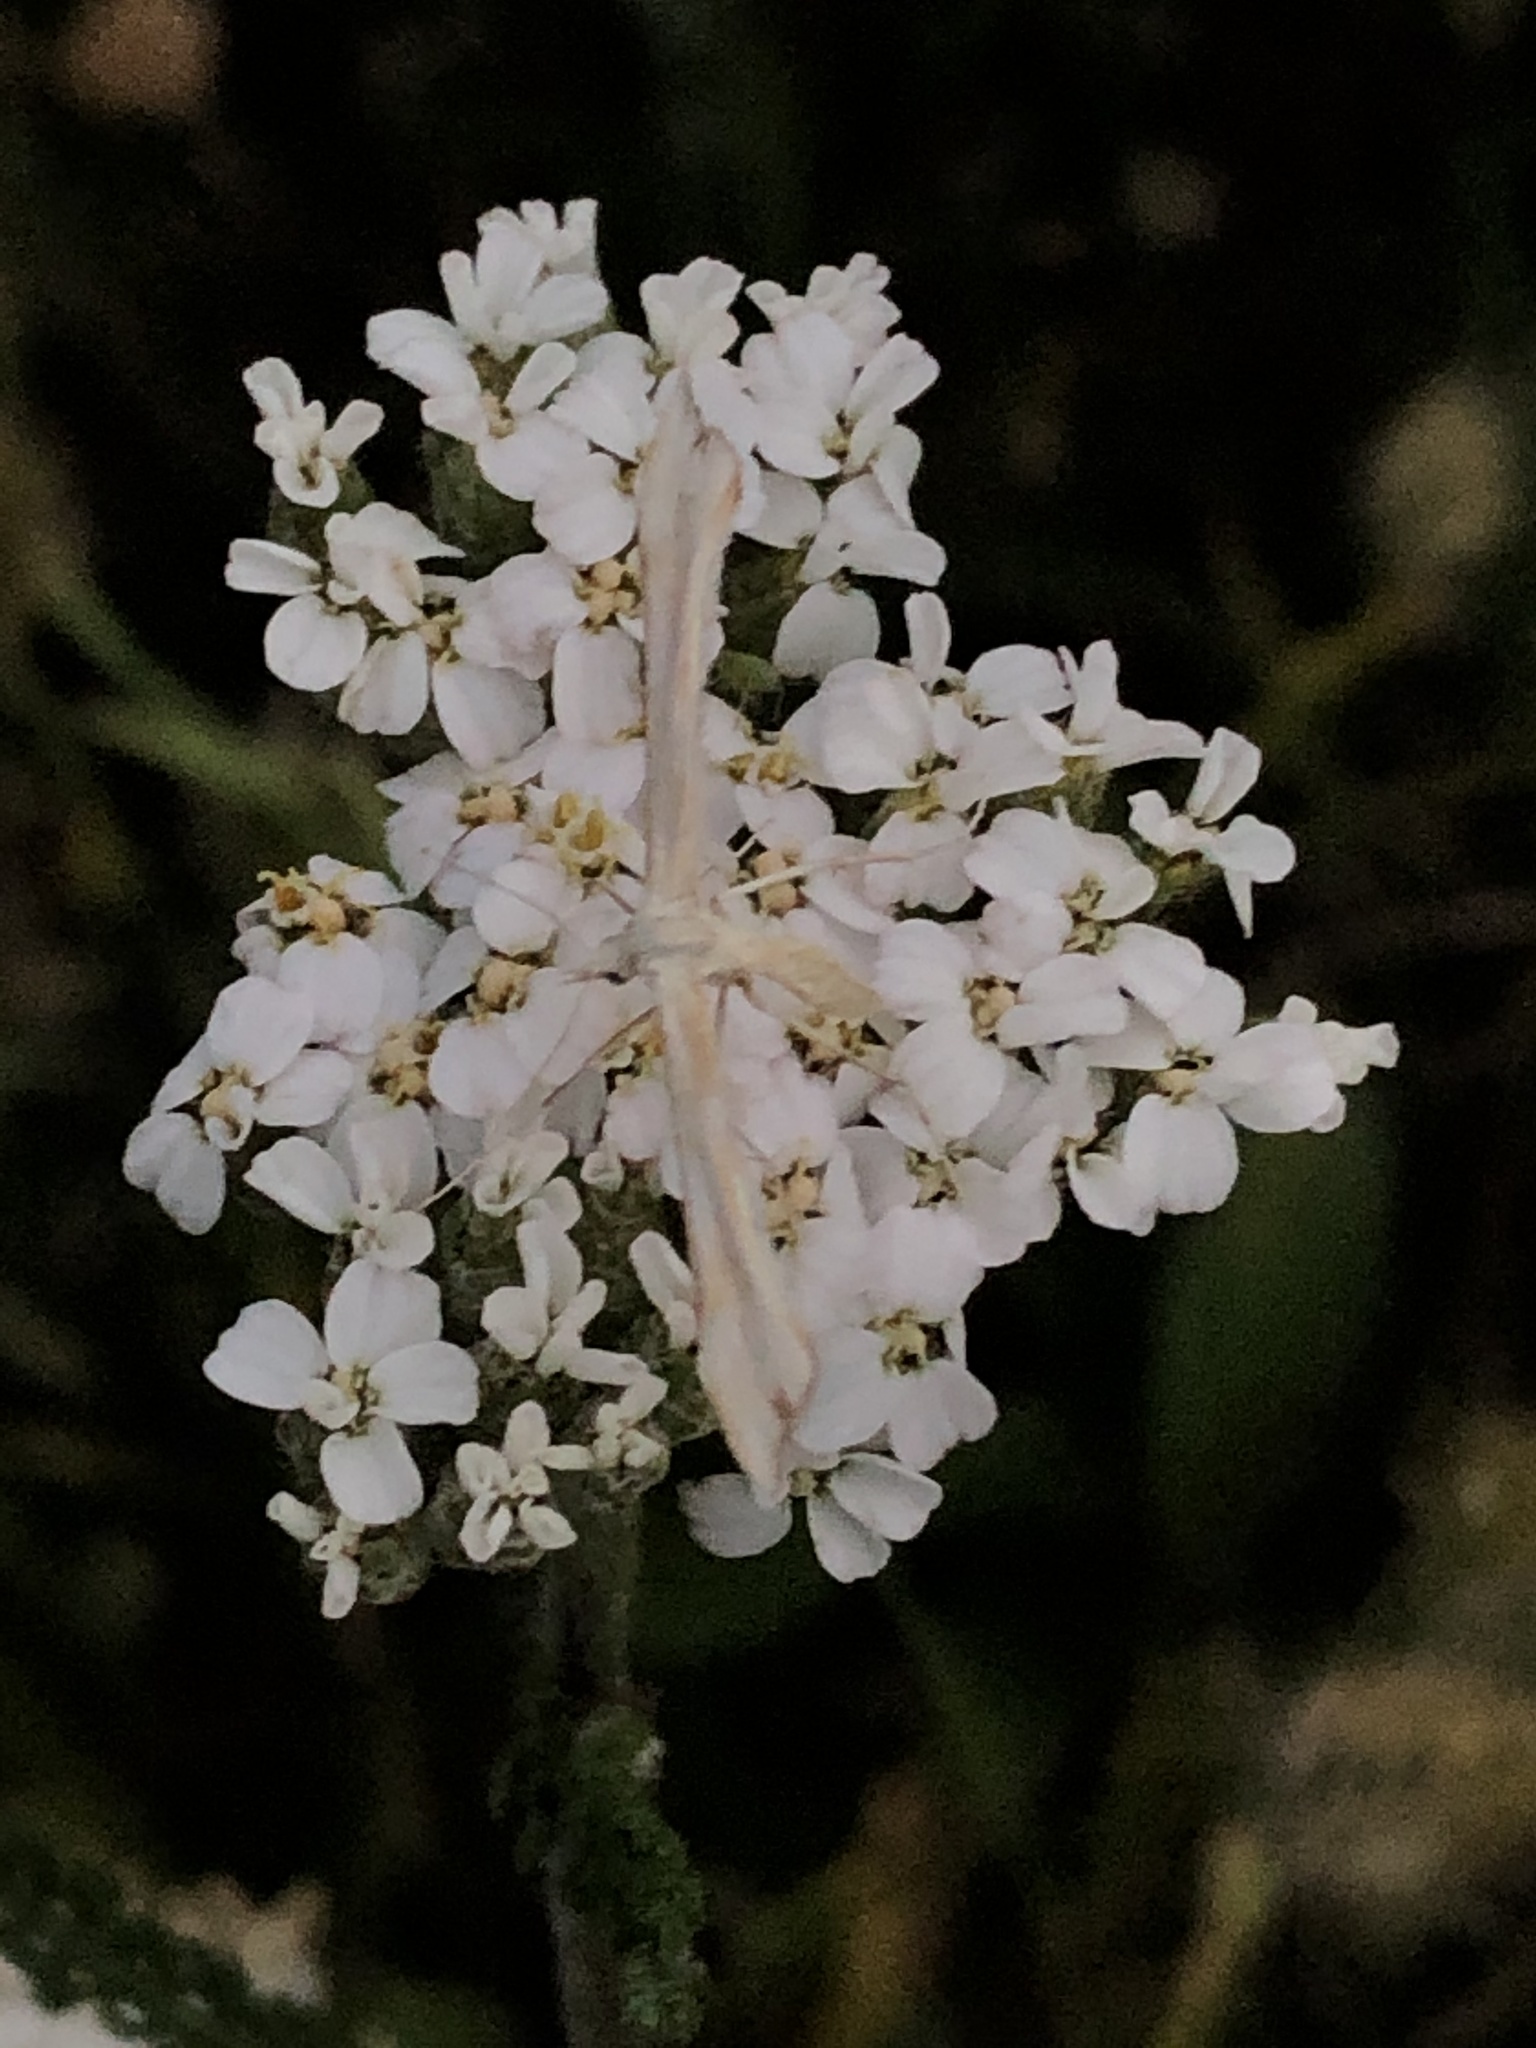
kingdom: Animalia
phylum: Arthropoda
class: Insecta
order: Lepidoptera
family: Pterophoridae
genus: Gillmeria
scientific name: Gillmeria pallidactyla
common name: Yarrow plume
